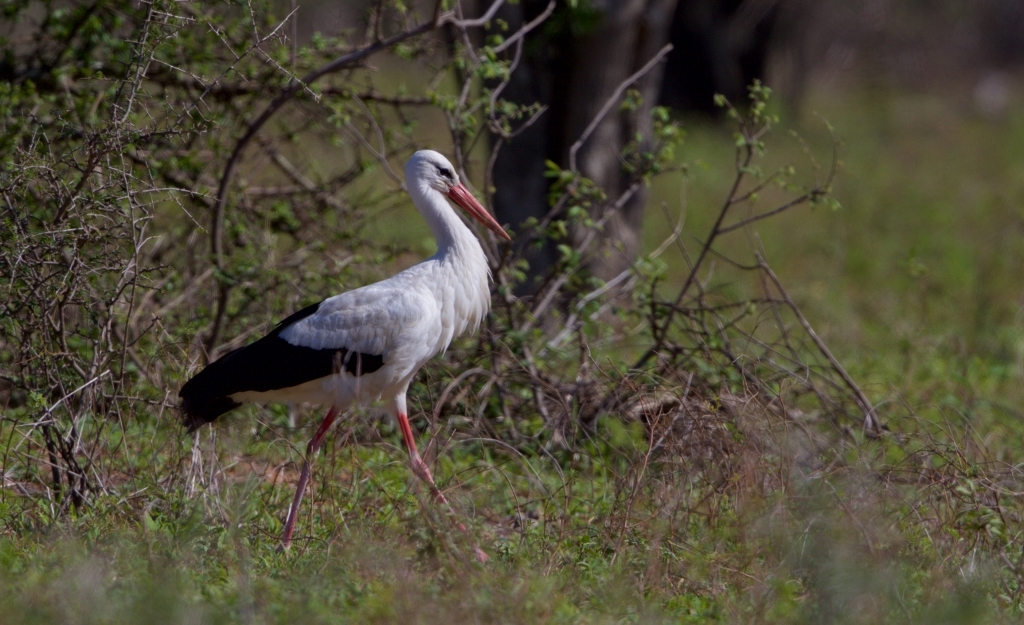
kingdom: Animalia
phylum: Chordata
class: Aves
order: Ciconiiformes
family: Ciconiidae
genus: Ciconia
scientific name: Ciconia ciconia
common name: White stork
